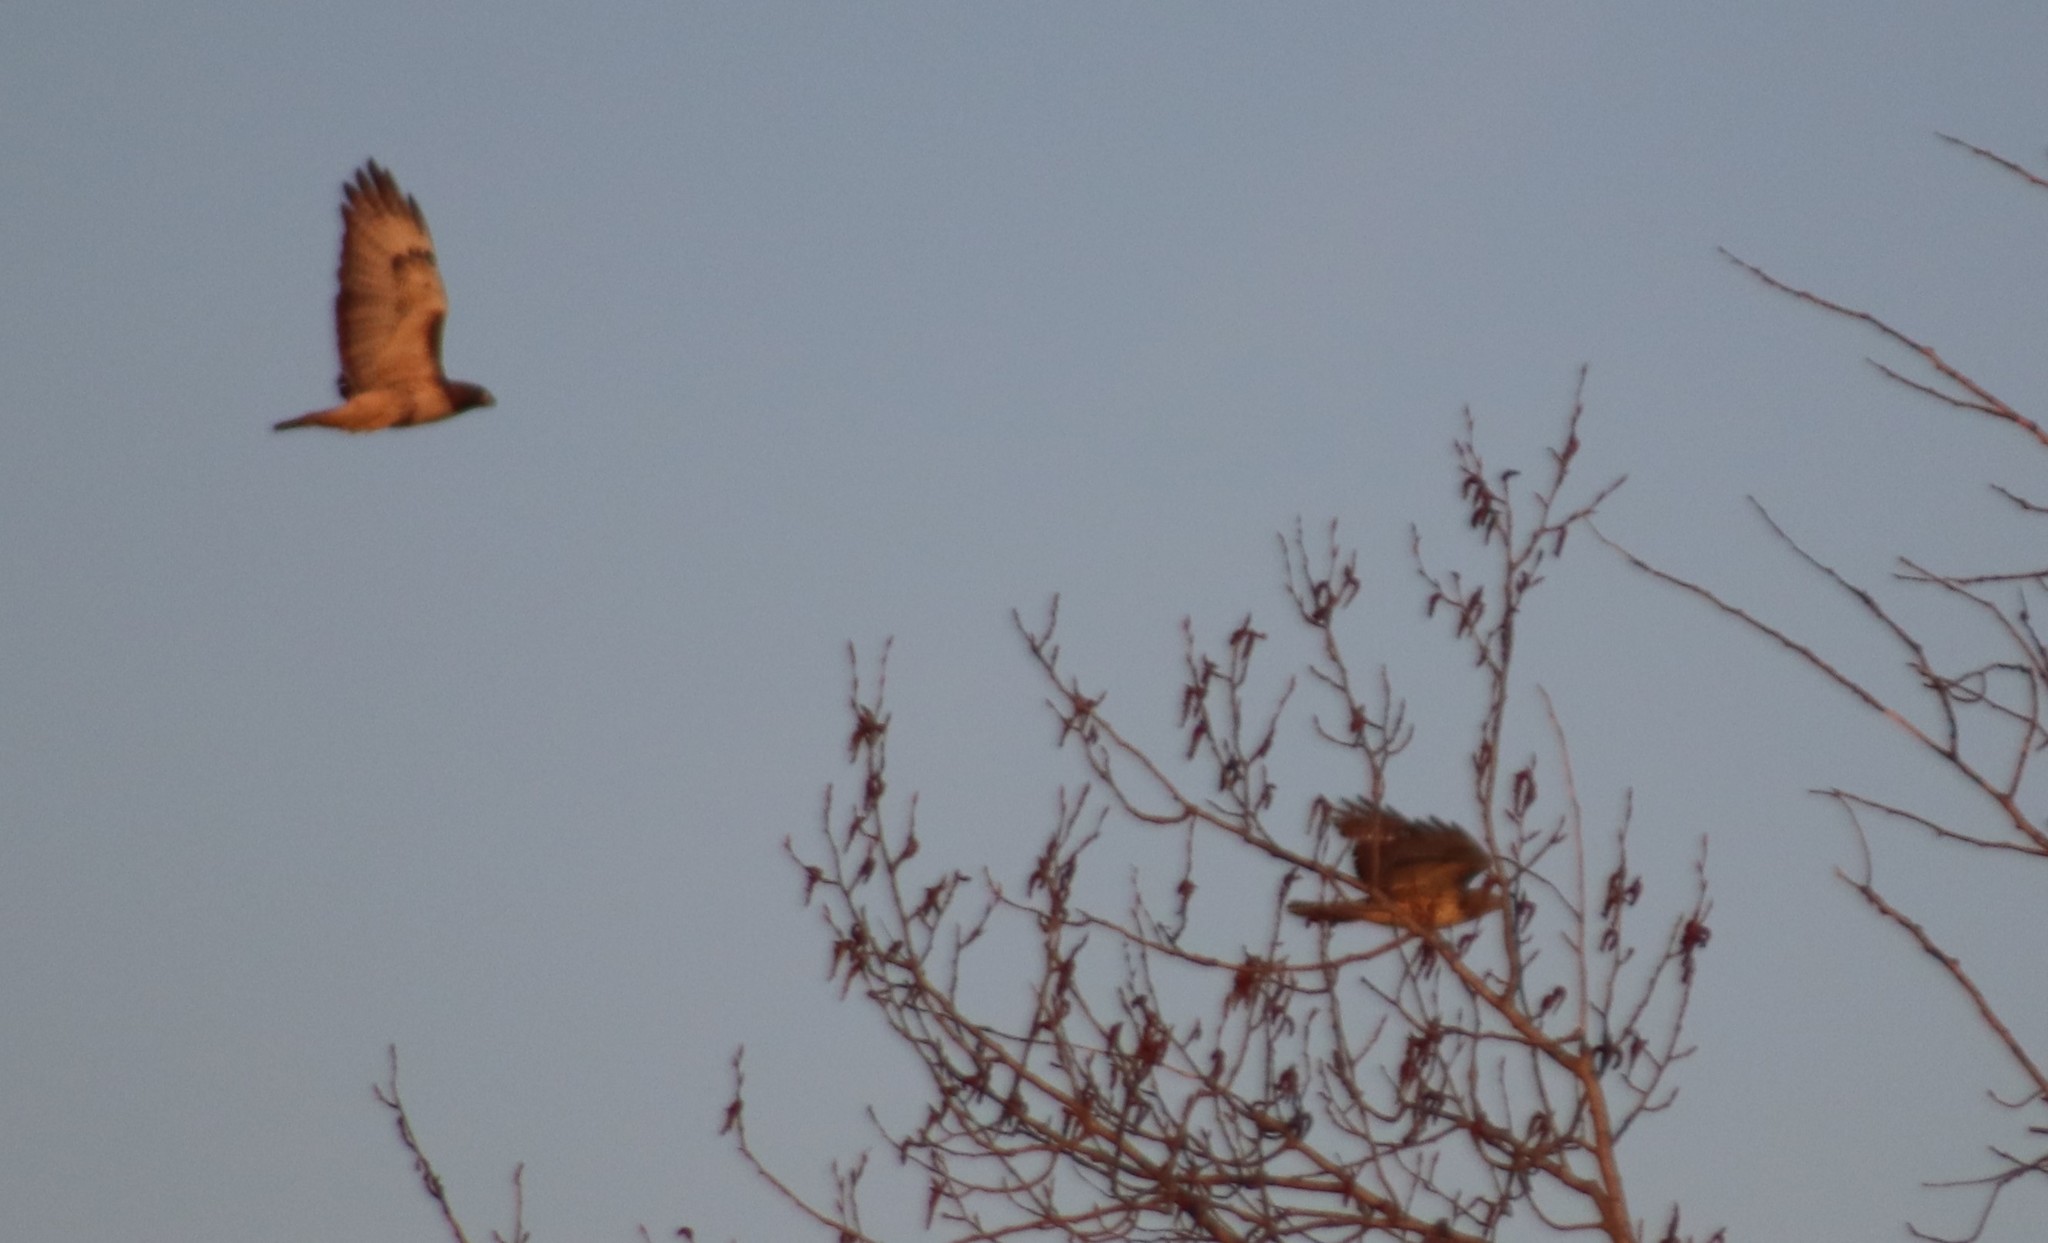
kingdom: Animalia
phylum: Chordata
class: Aves
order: Accipitriformes
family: Accipitridae
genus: Buteo
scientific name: Buteo jamaicensis
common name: Red-tailed hawk
